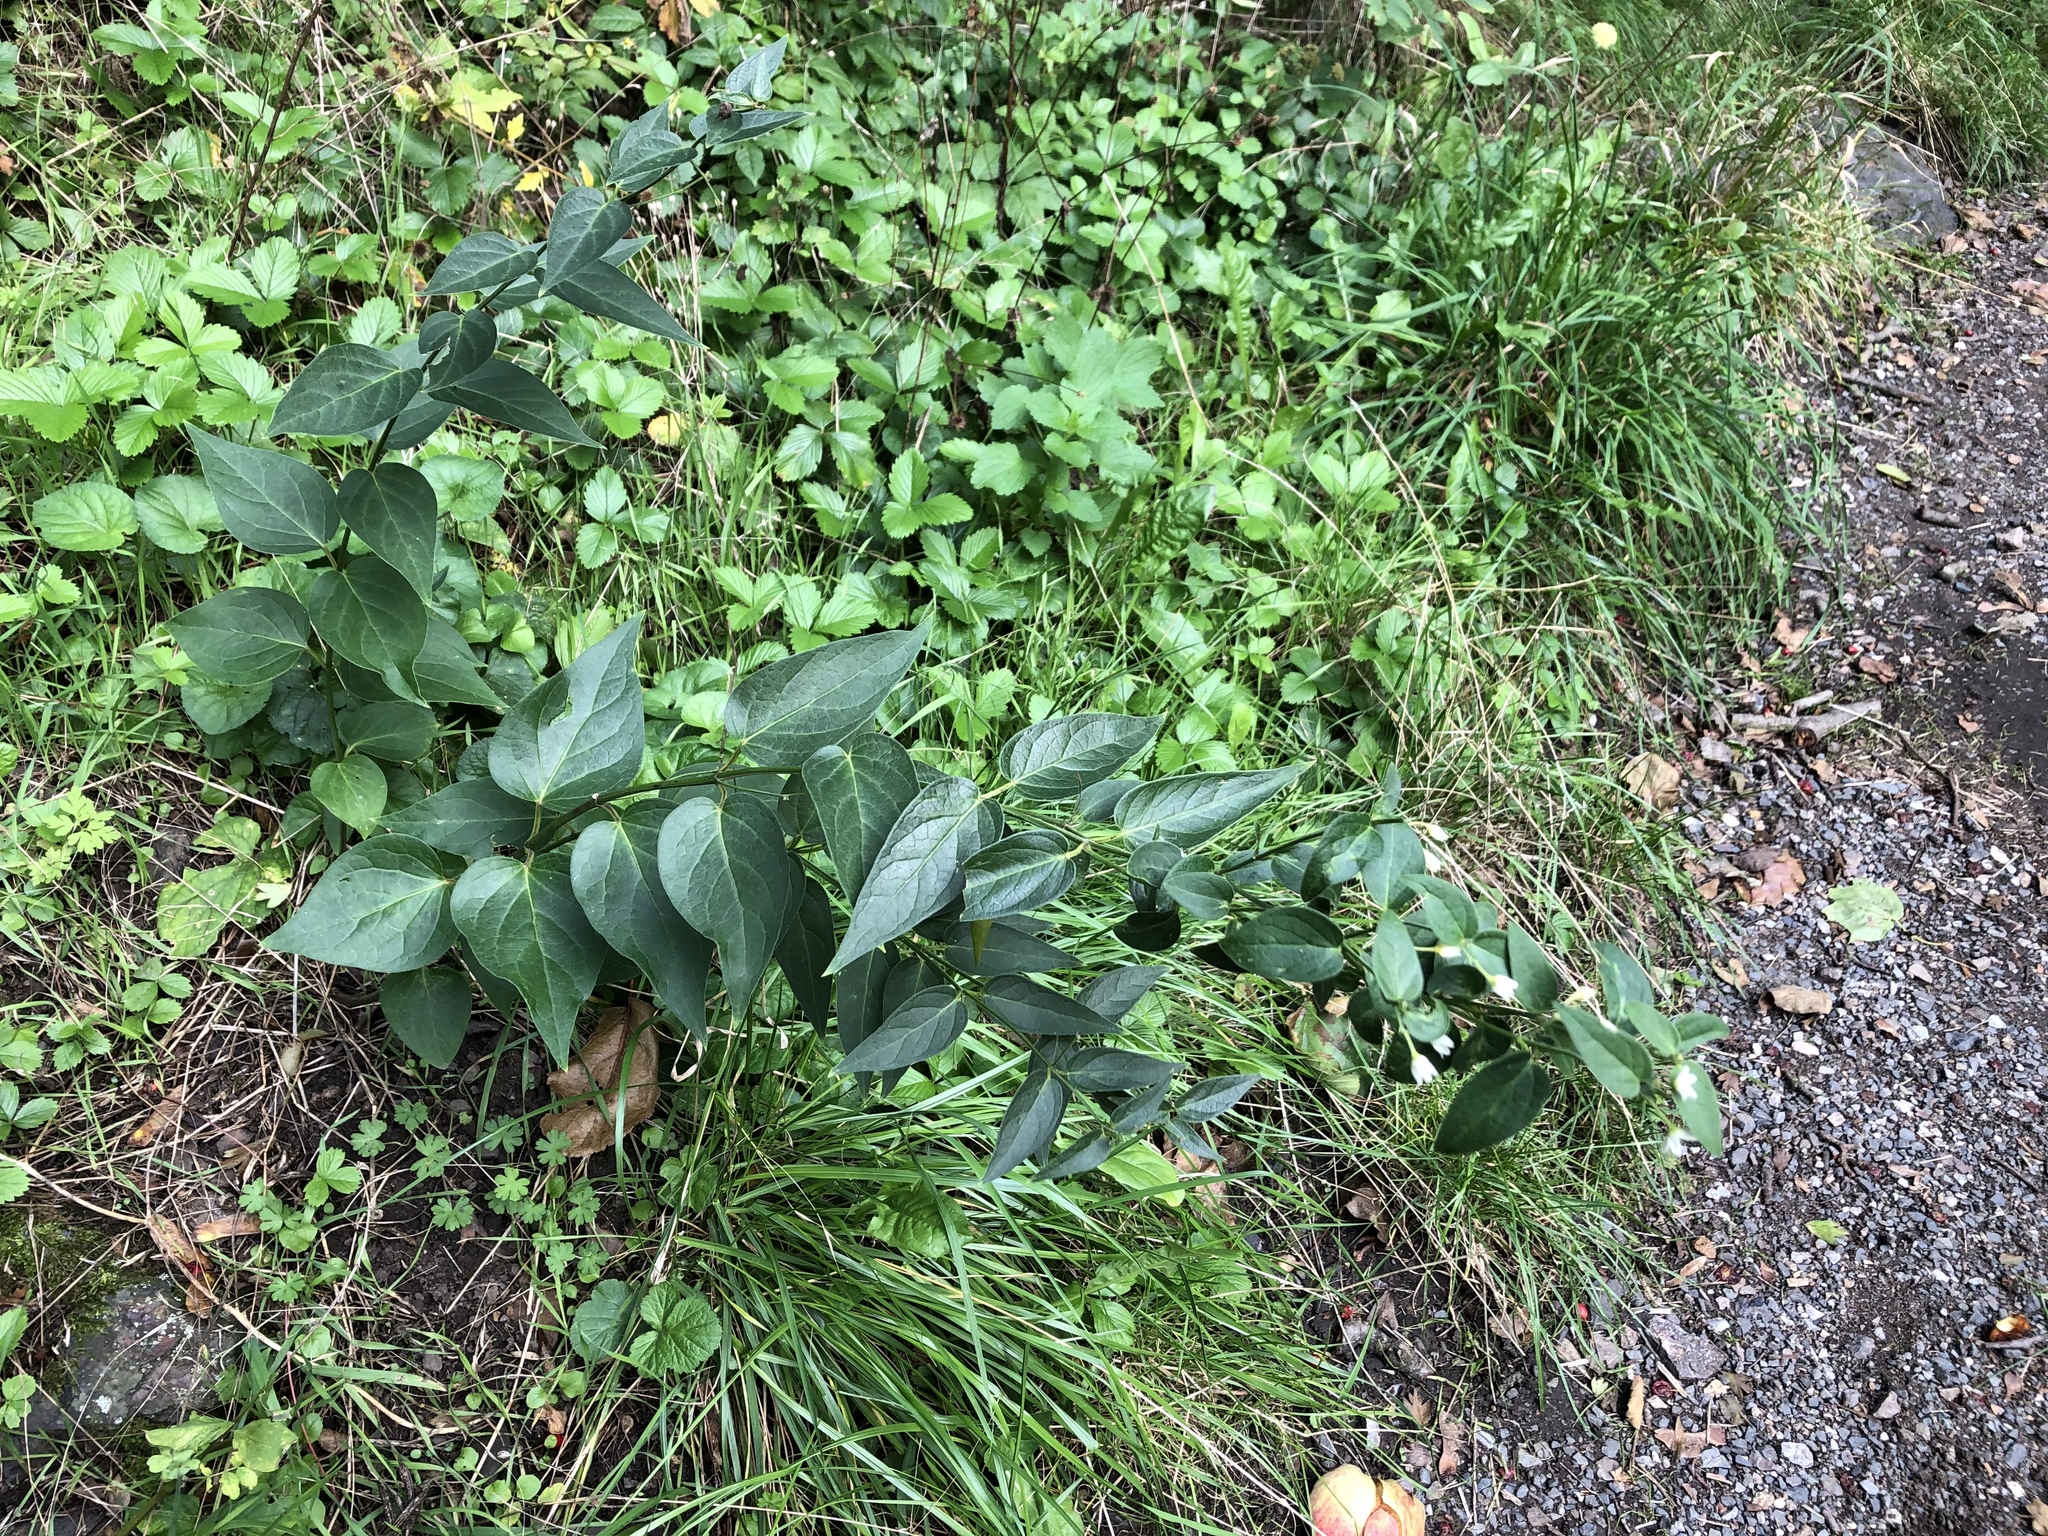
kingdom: Plantae
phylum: Tracheophyta
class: Magnoliopsida
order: Gentianales
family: Apocynaceae
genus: Vincetoxicum
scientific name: Vincetoxicum hirundinaria
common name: White swallowwort
